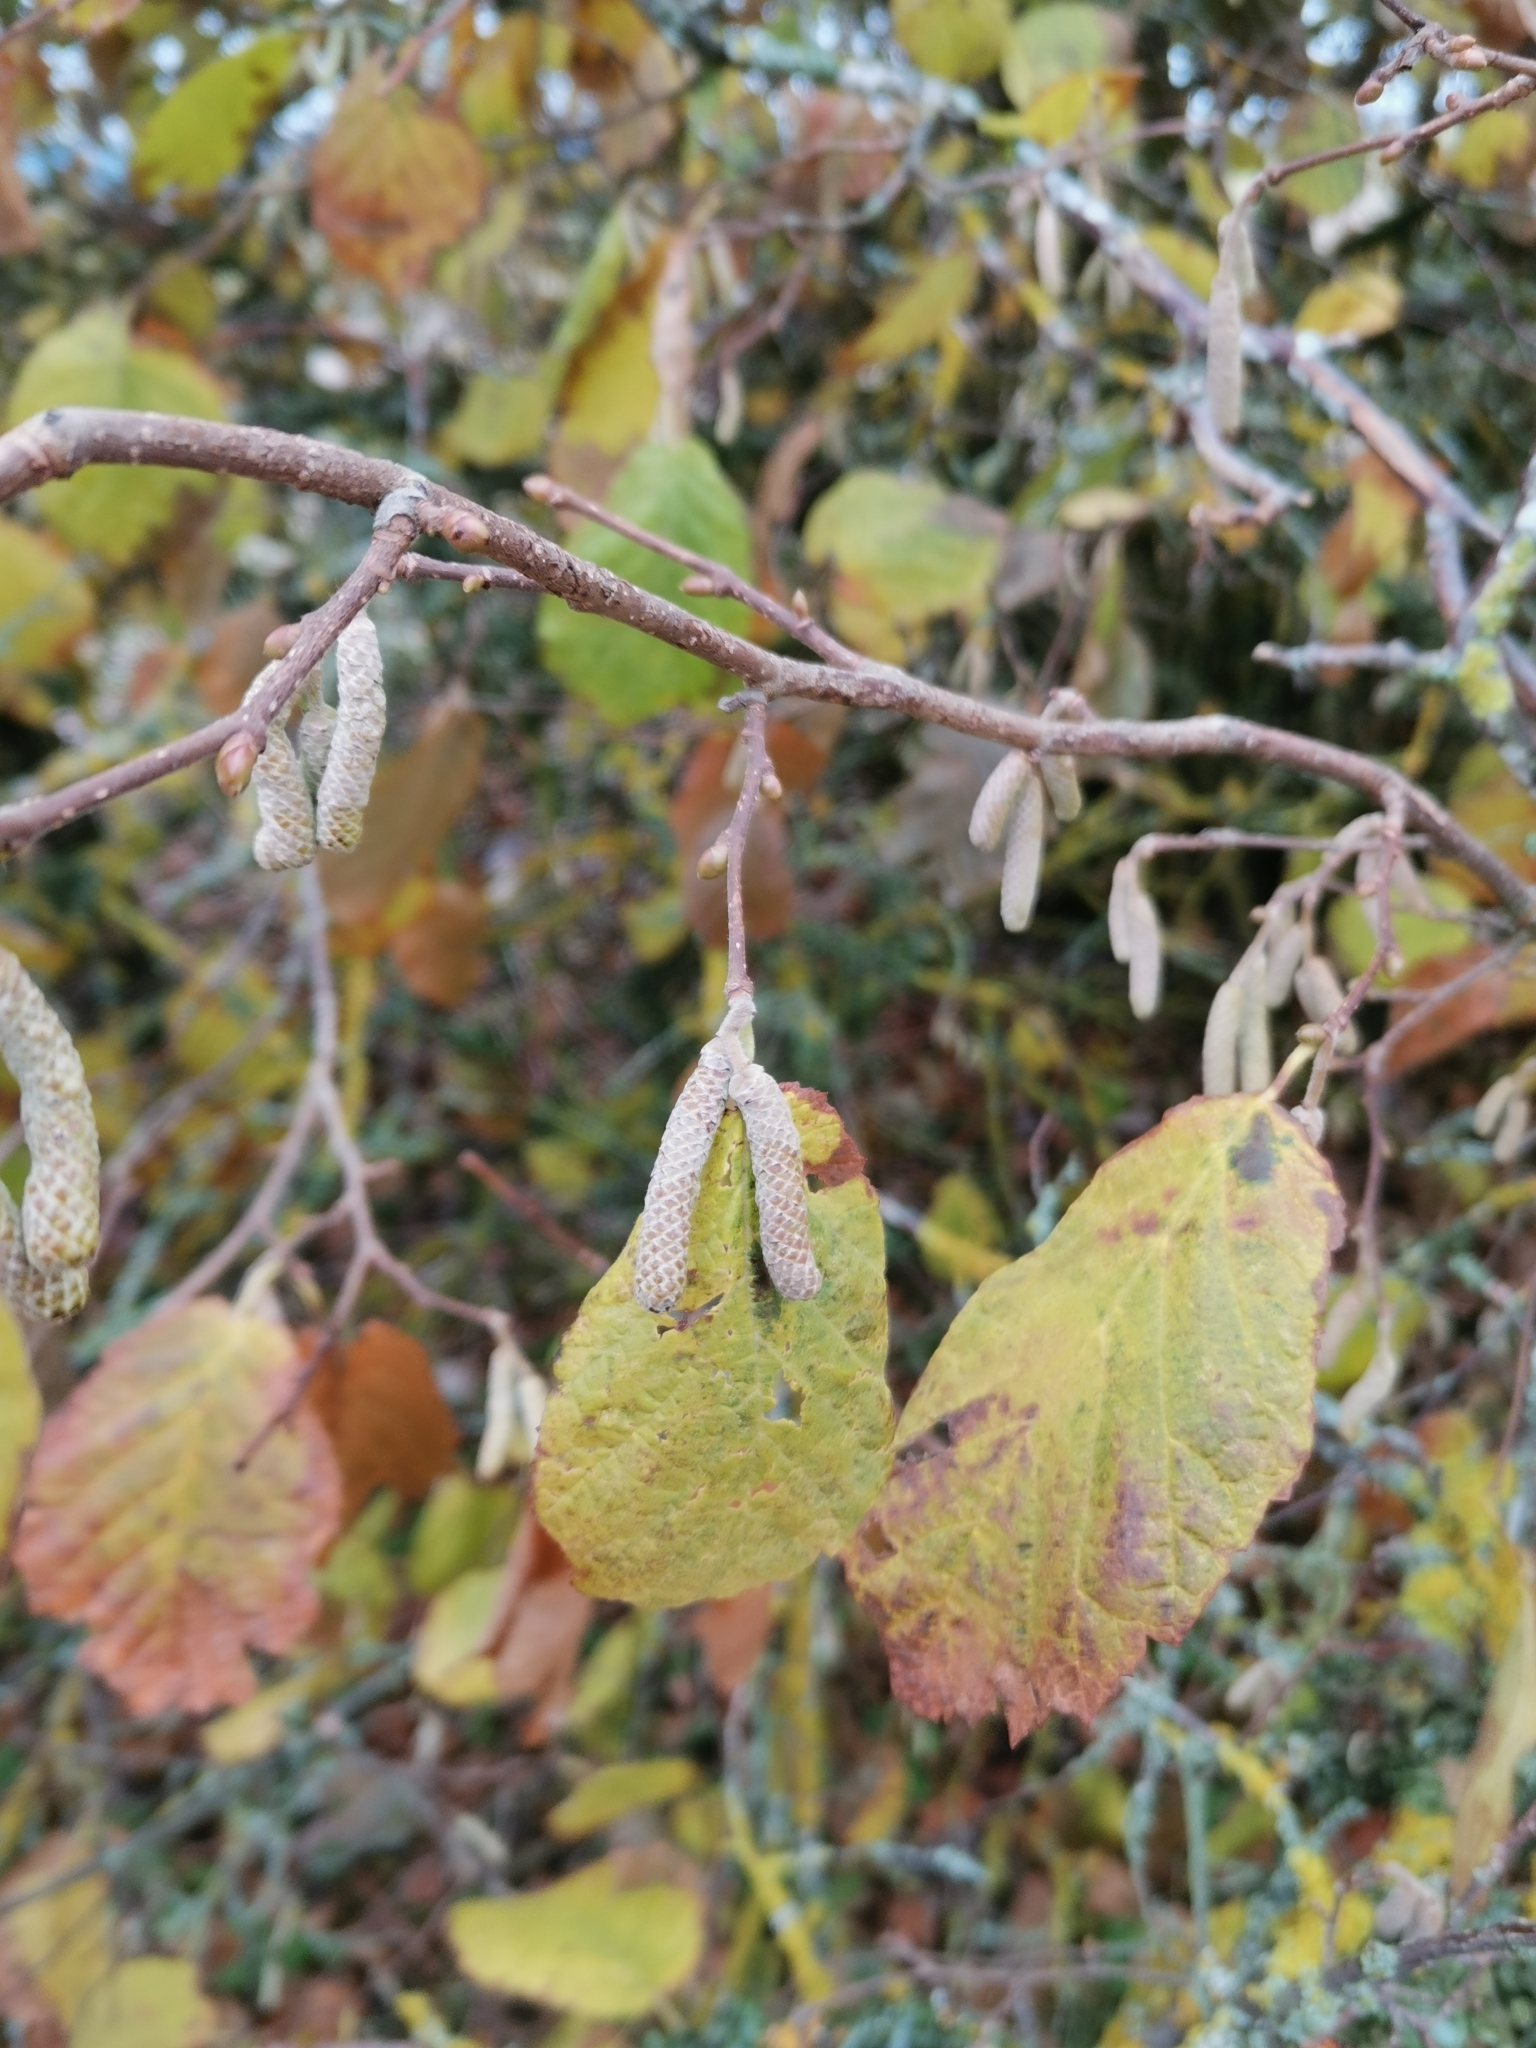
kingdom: Plantae
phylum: Tracheophyta
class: Magnoliopsida
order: Fagales
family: Betulaceae
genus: Corylus
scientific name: Corylus avellana
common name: European hazel
